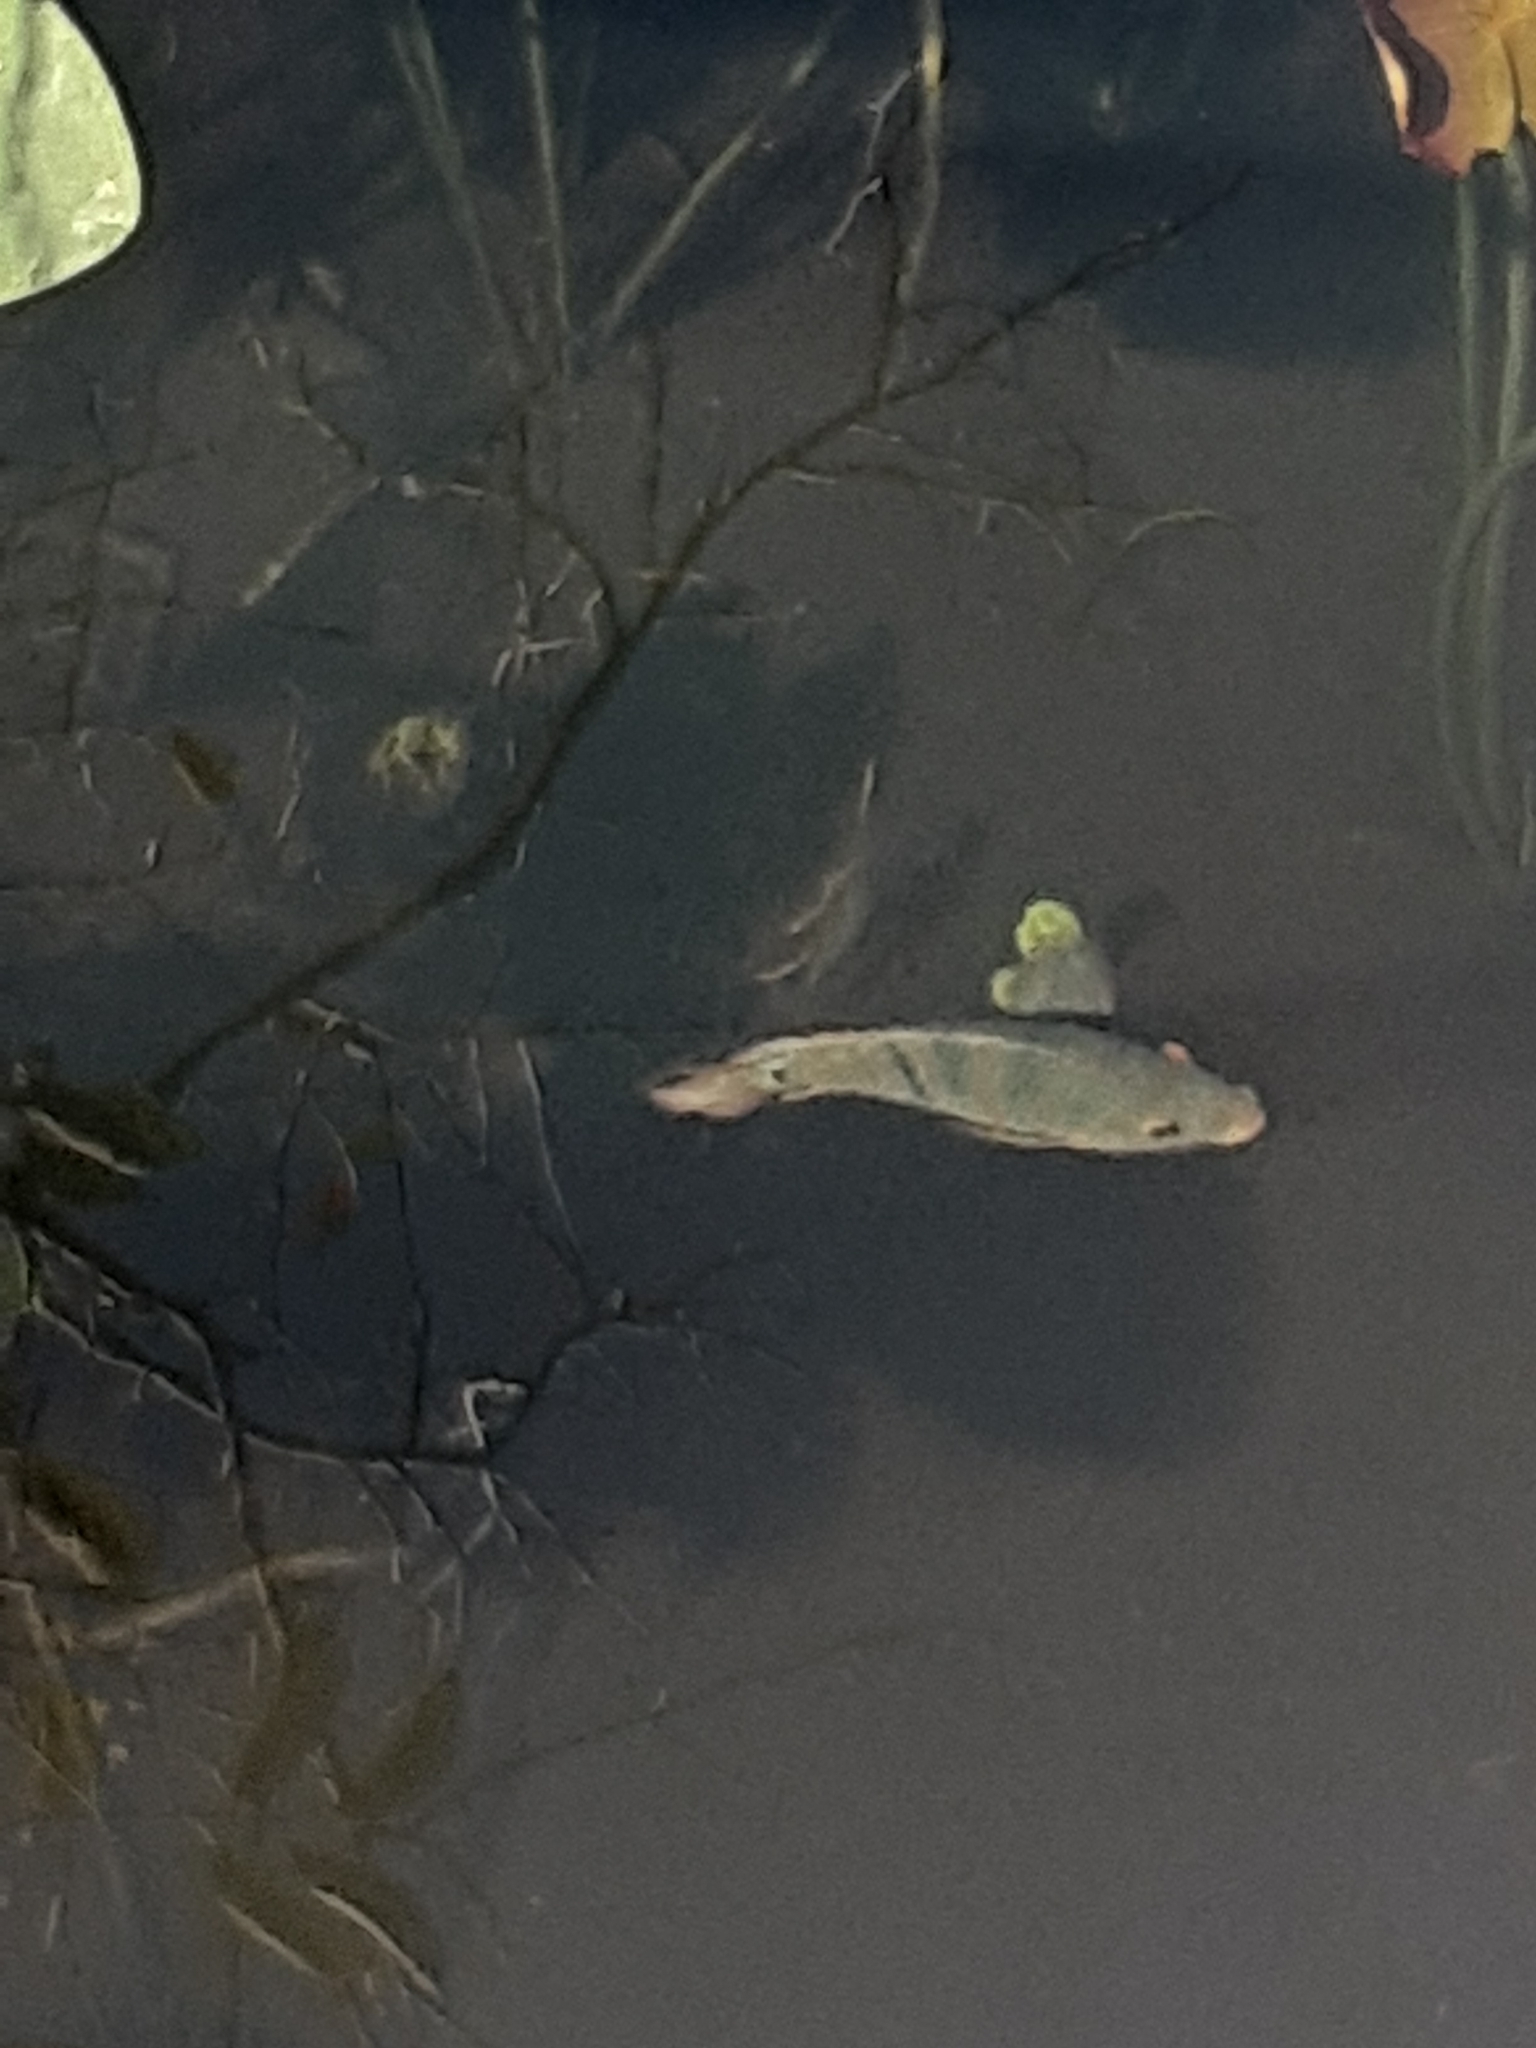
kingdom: Animalia
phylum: Chordata
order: Perciformes
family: Cichlidae
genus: Mayaheros
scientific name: Mayaheros urophthalmus
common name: Mayan cichlid
